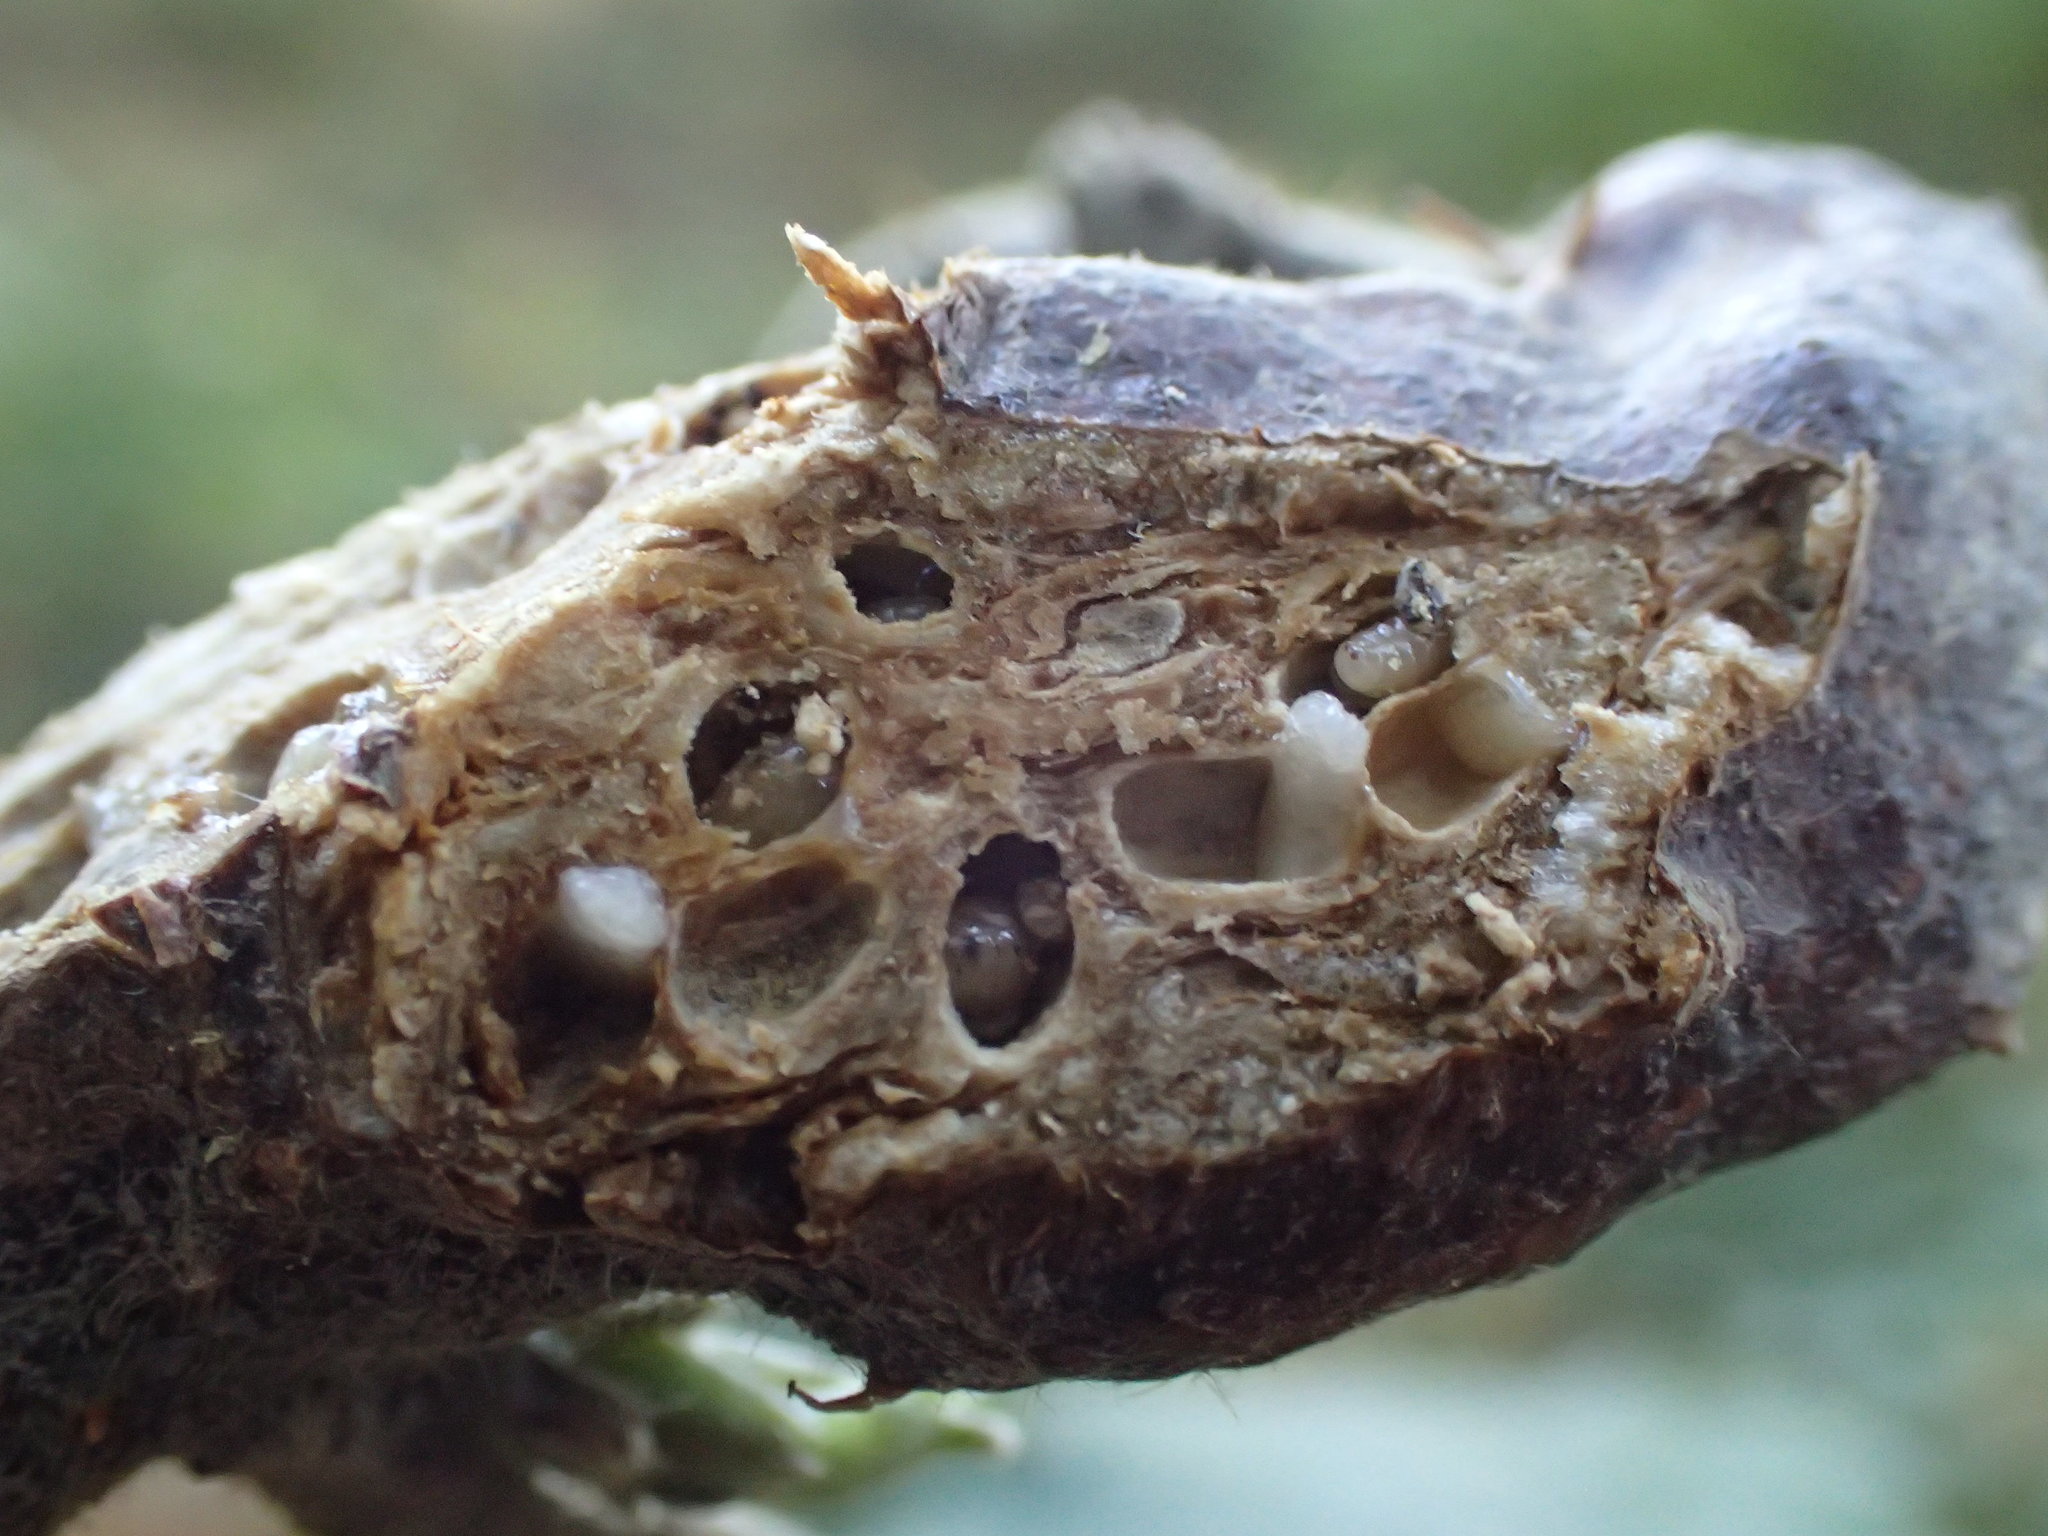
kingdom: Animalia
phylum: Arthropoda
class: Insecta
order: Hymenoptera
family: Cynipidae
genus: Diastrophus
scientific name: Diastrophus rubi
